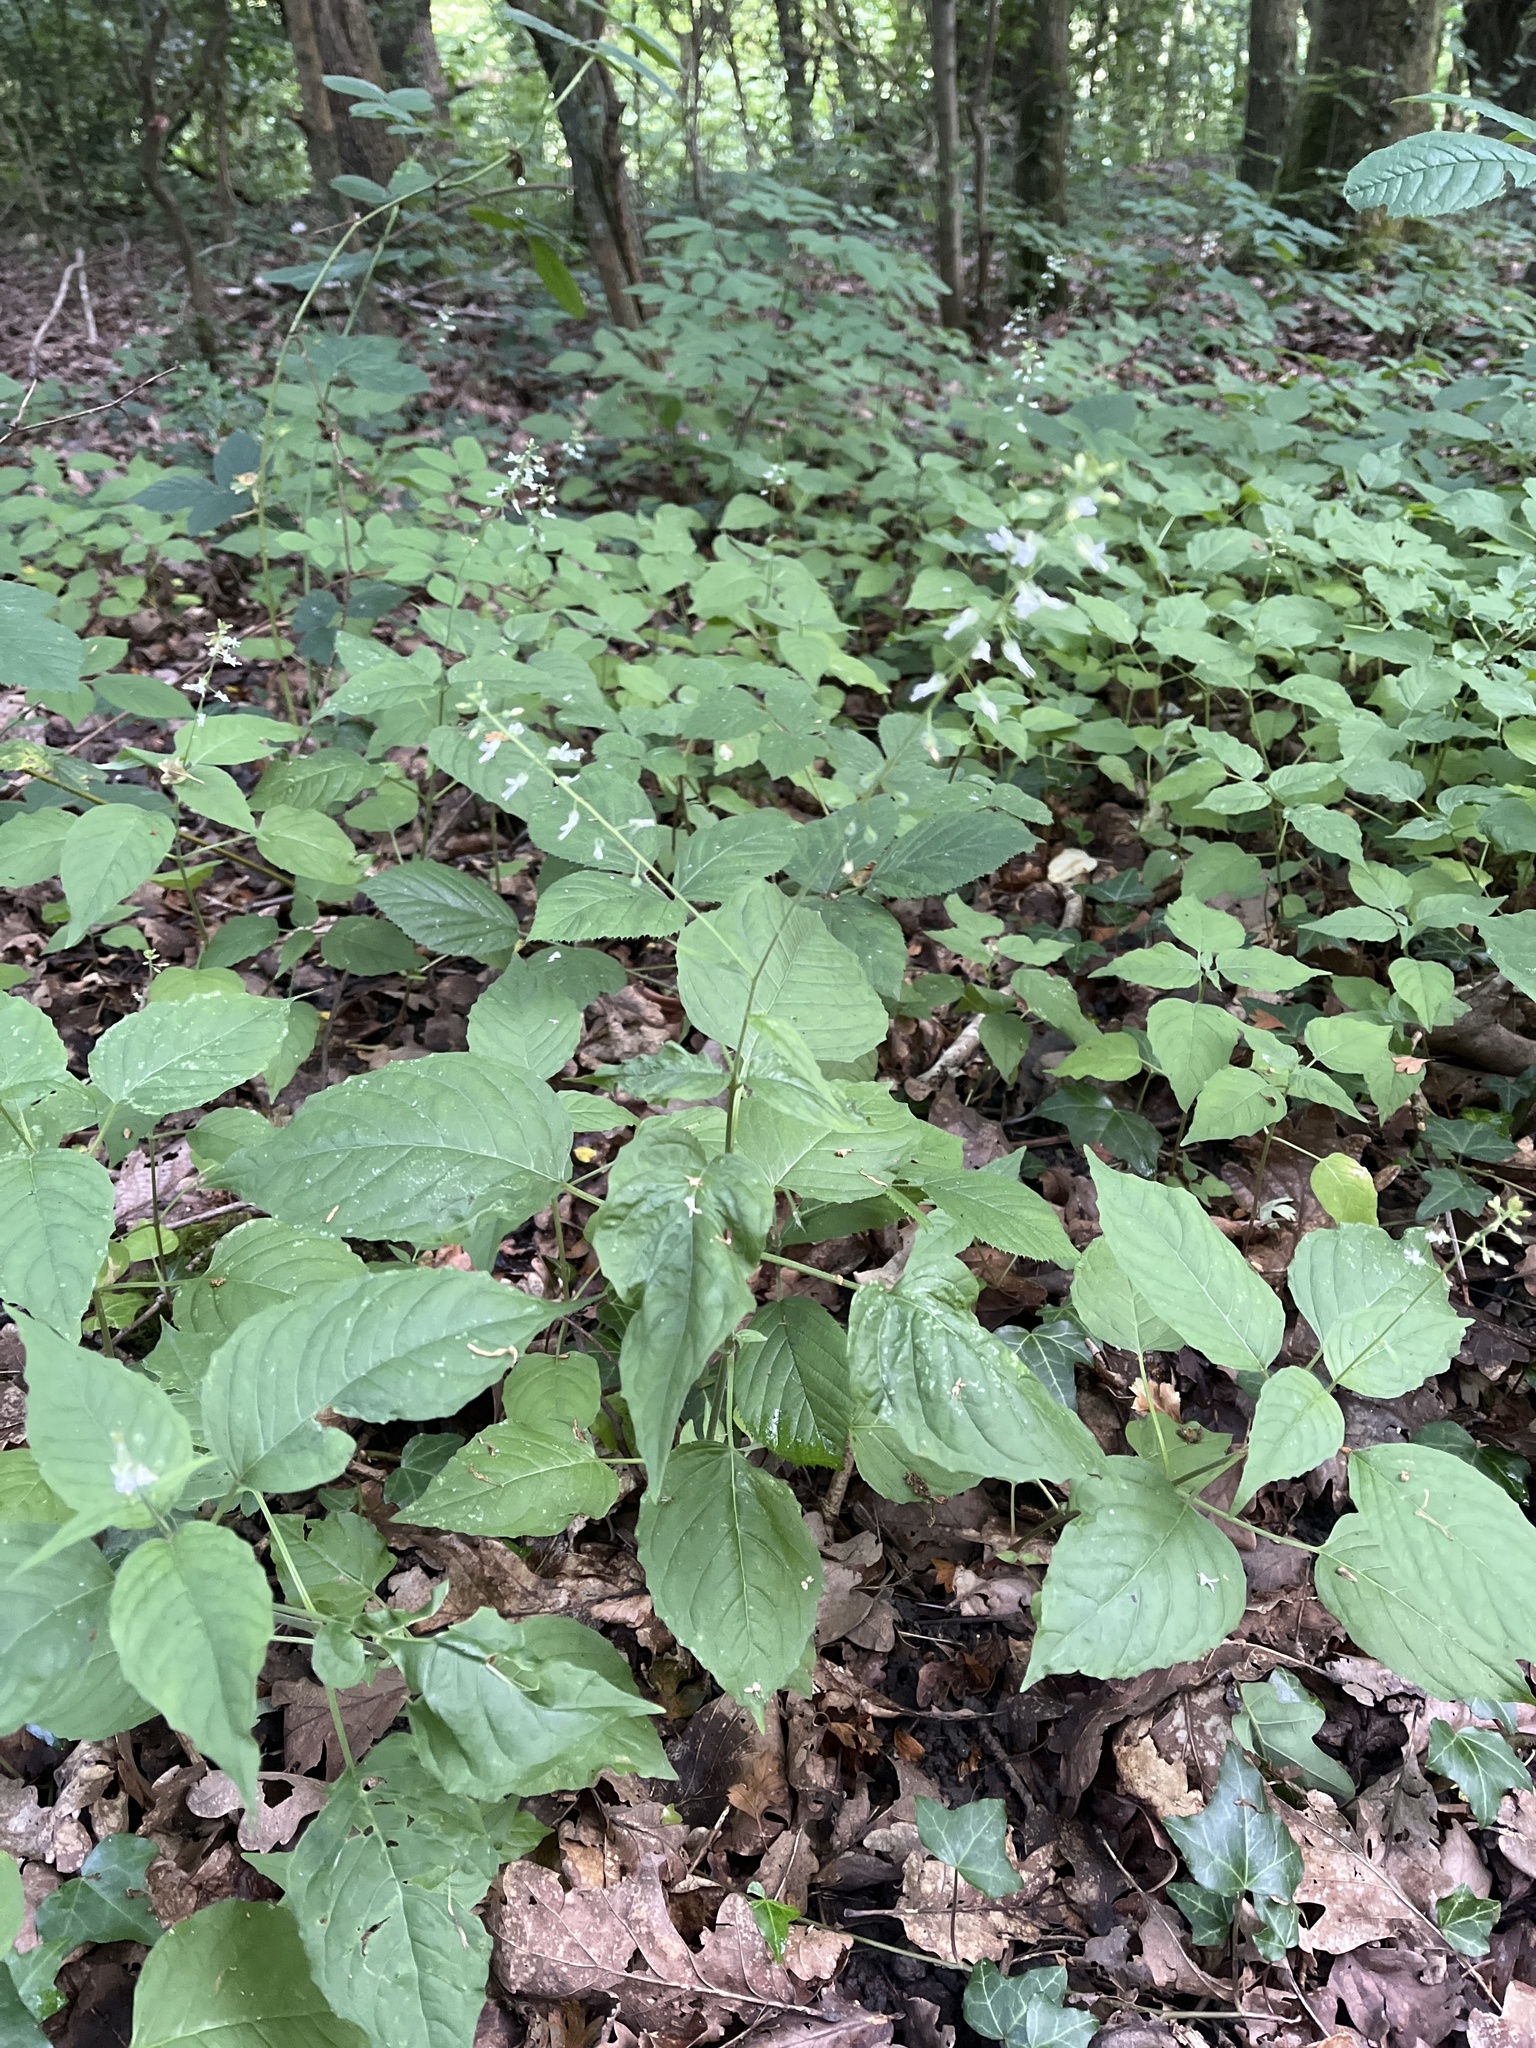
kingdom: Plantae
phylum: Tracheophyta
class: Magnoliopsida
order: Myrtales
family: Onagraceae
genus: Circaea
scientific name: Circaea lutetiana
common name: Enchanter's-nightshade
